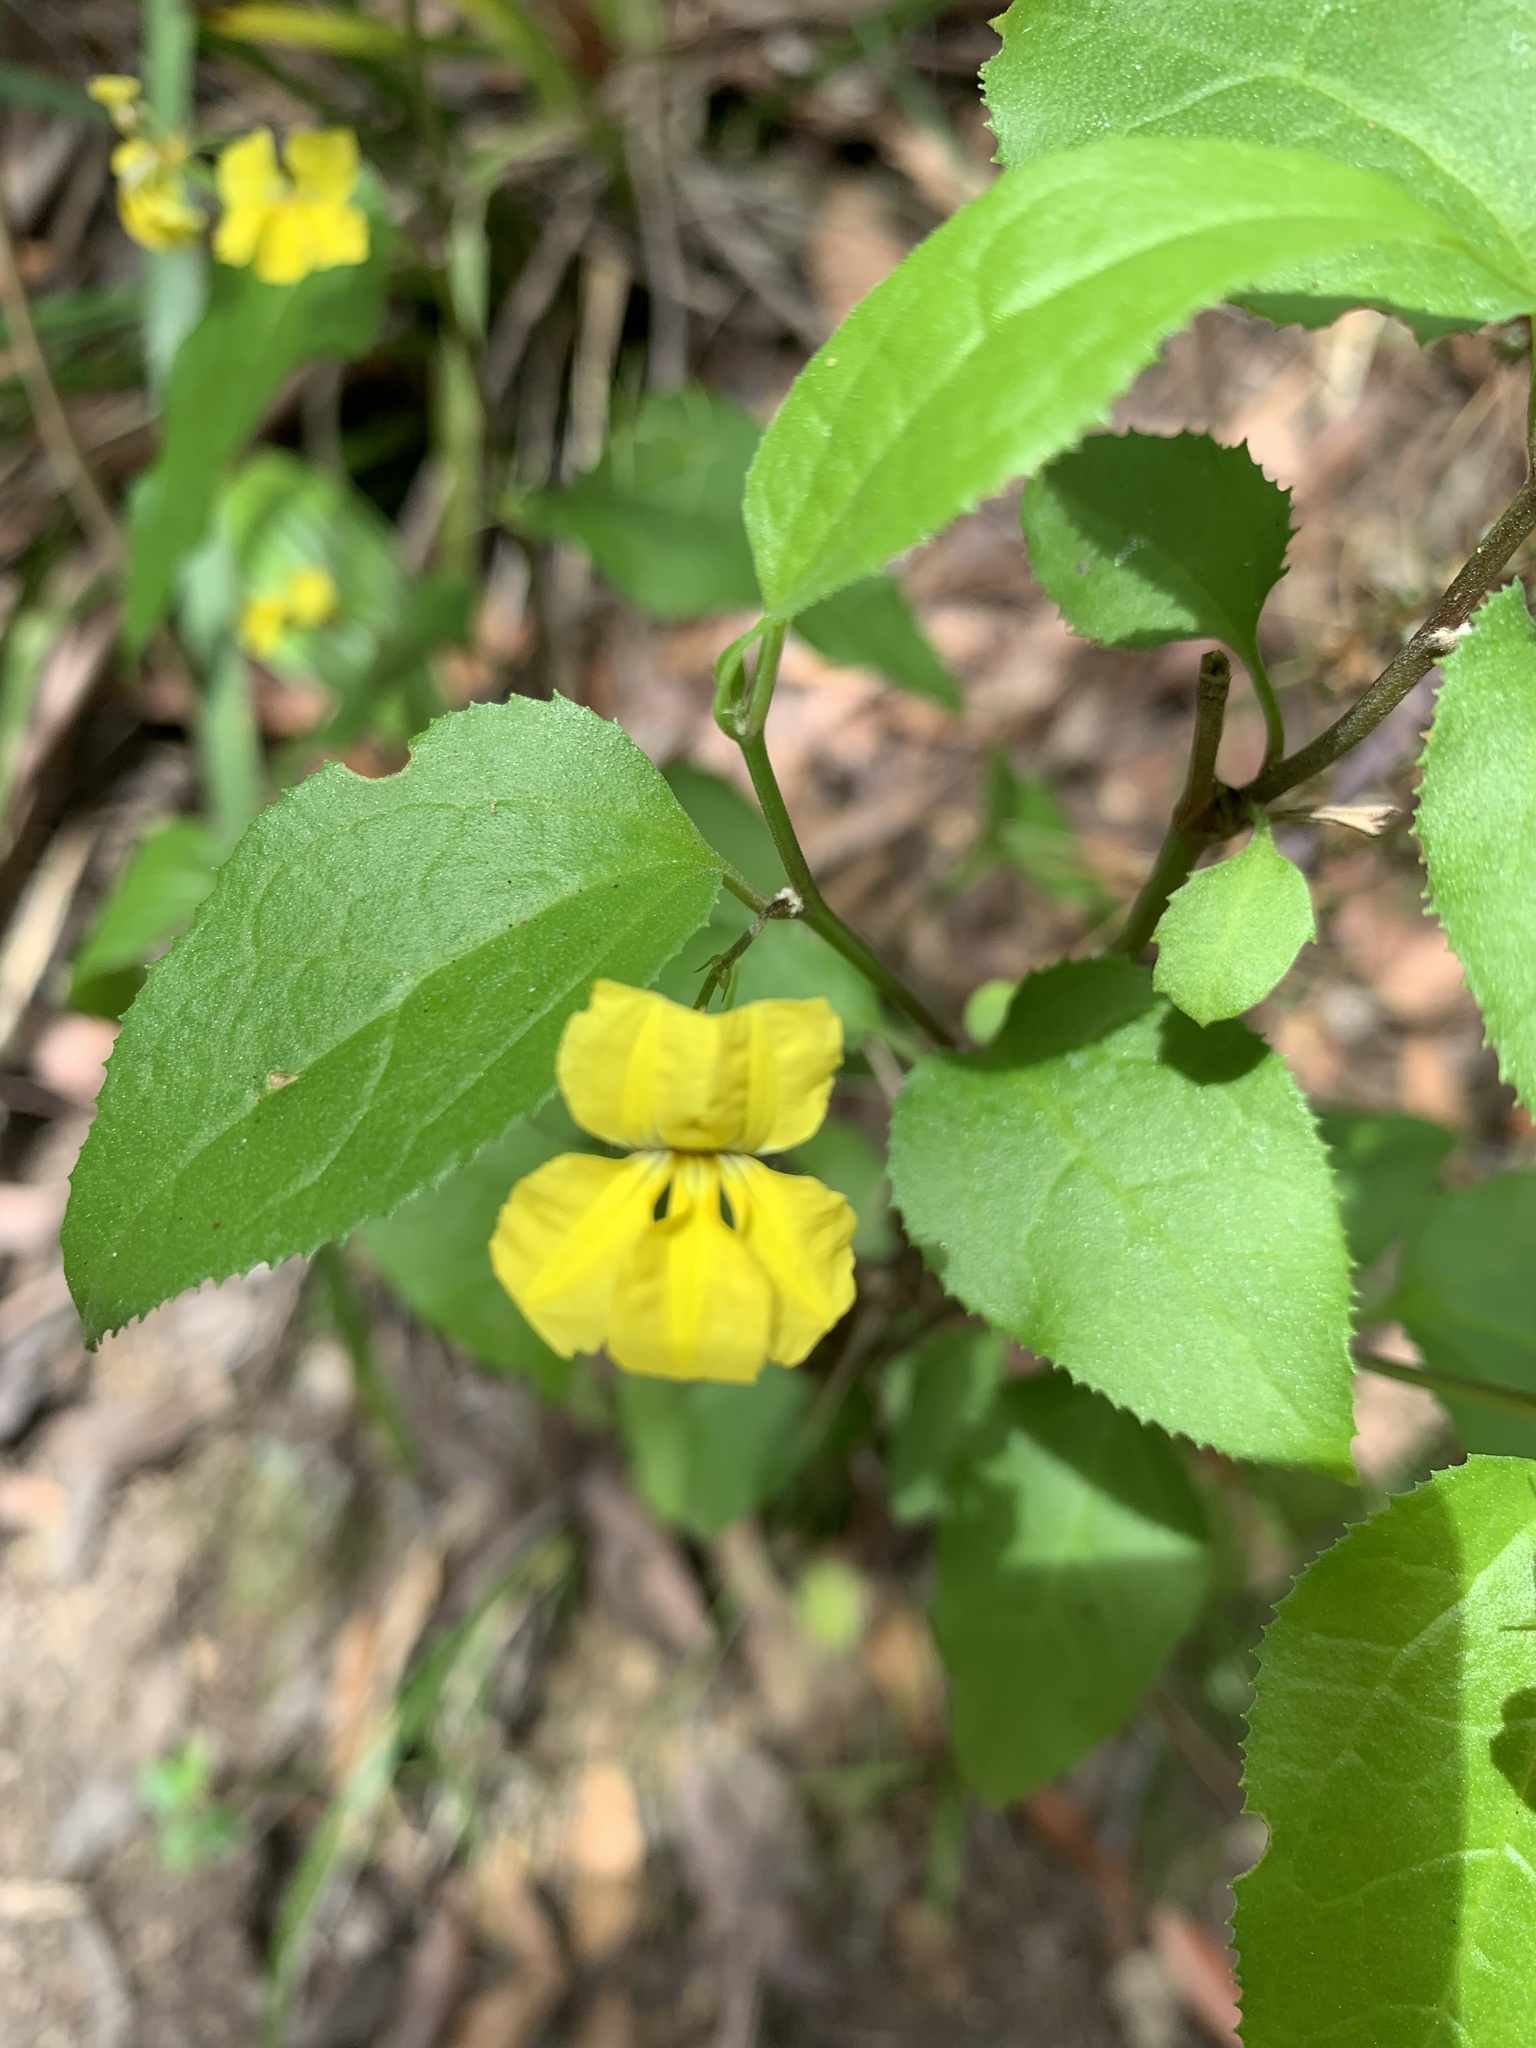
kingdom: Plantae
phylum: Tracheophyta
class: Magnoliopsida
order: Asterales
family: Goodeniaceae
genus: Goodenia
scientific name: Goodenia ovata
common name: Hop goodenia
